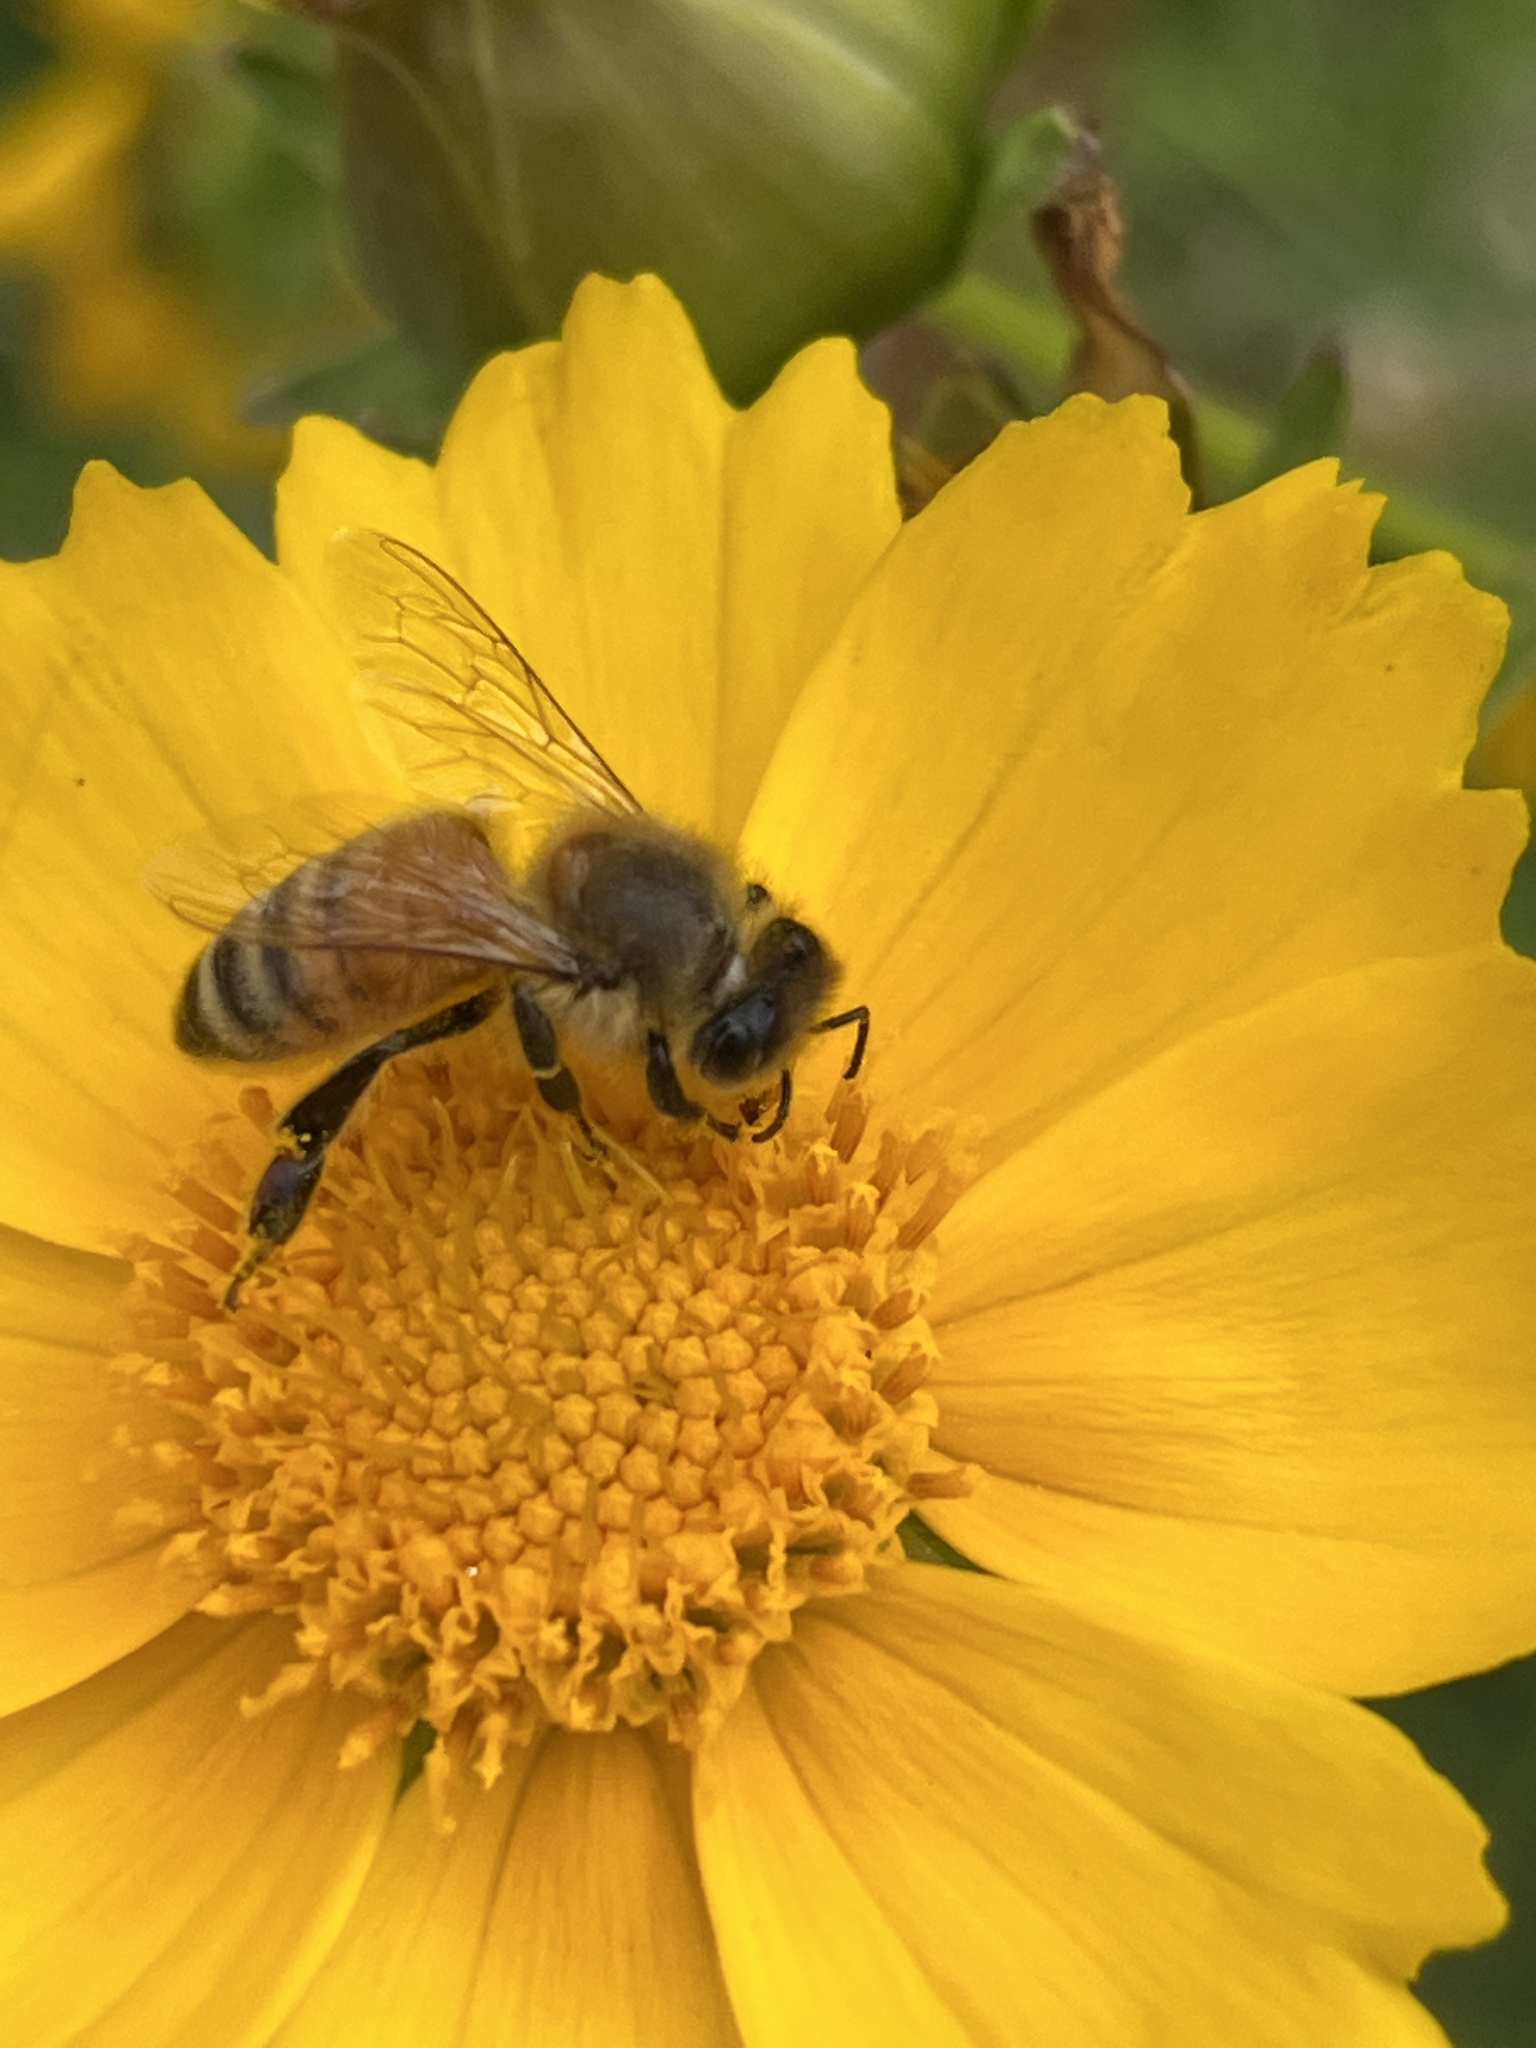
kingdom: Animalia
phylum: Arthropoda
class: Insecta
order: Hymenoptera
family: Apidae
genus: Apis
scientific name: Apis mellifera
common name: Honey bee
